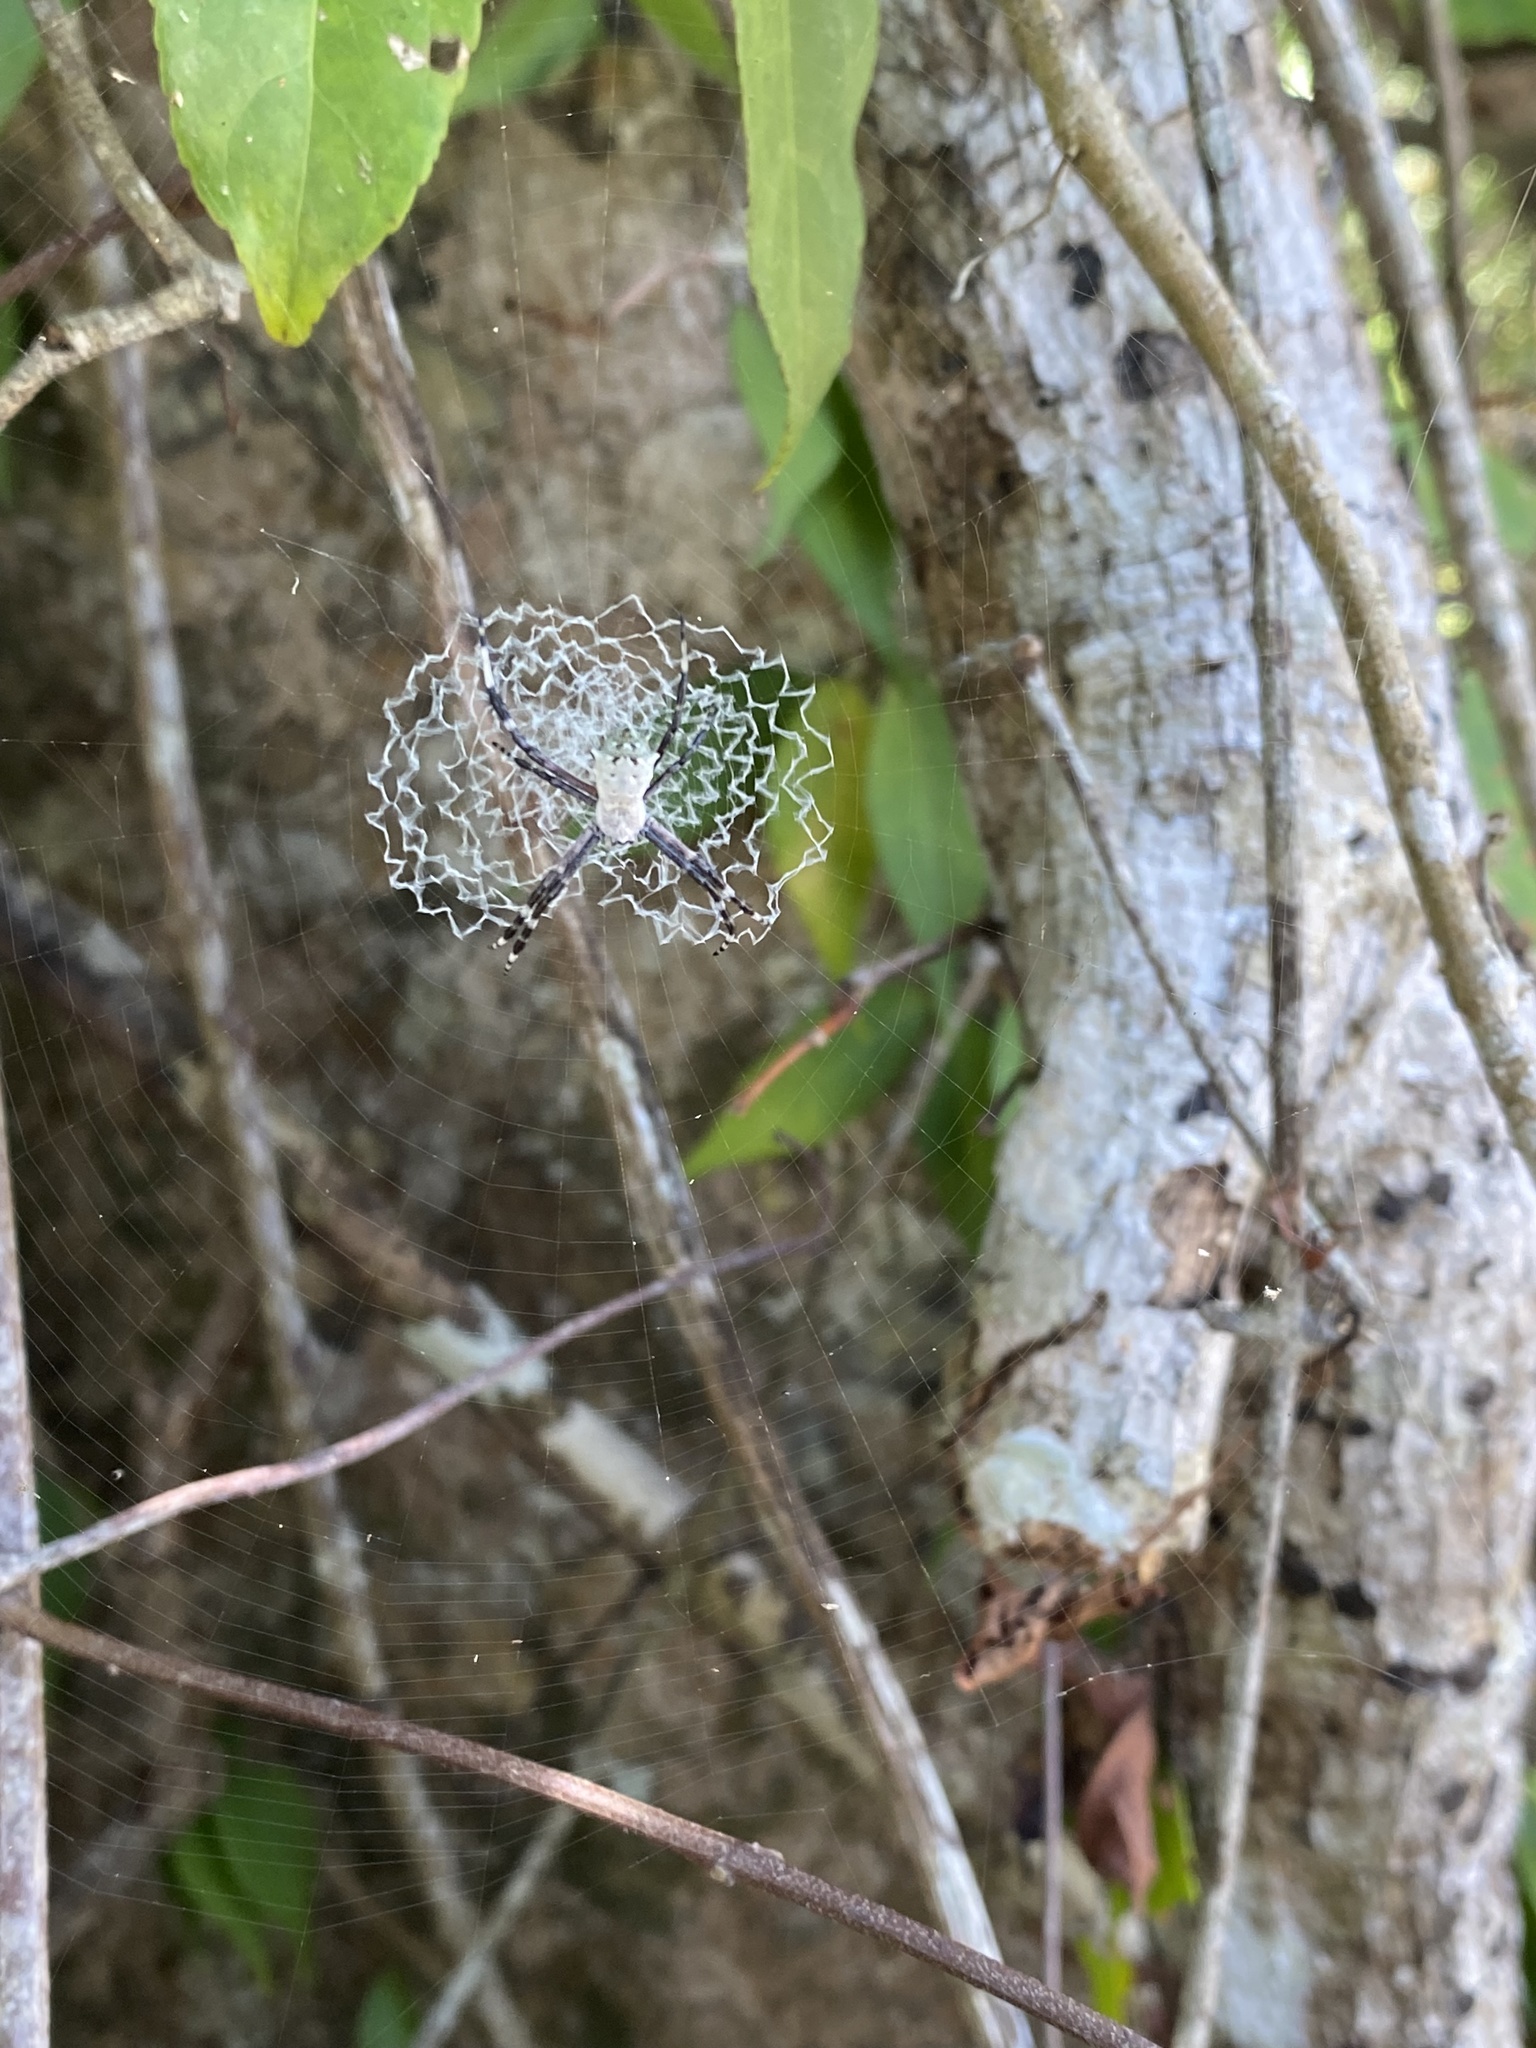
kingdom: Animalia
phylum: Arthropoda
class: Arachnida
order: Araneae
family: Araneidae
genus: Argiope
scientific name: Argiope submaronica
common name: Orb weavers
